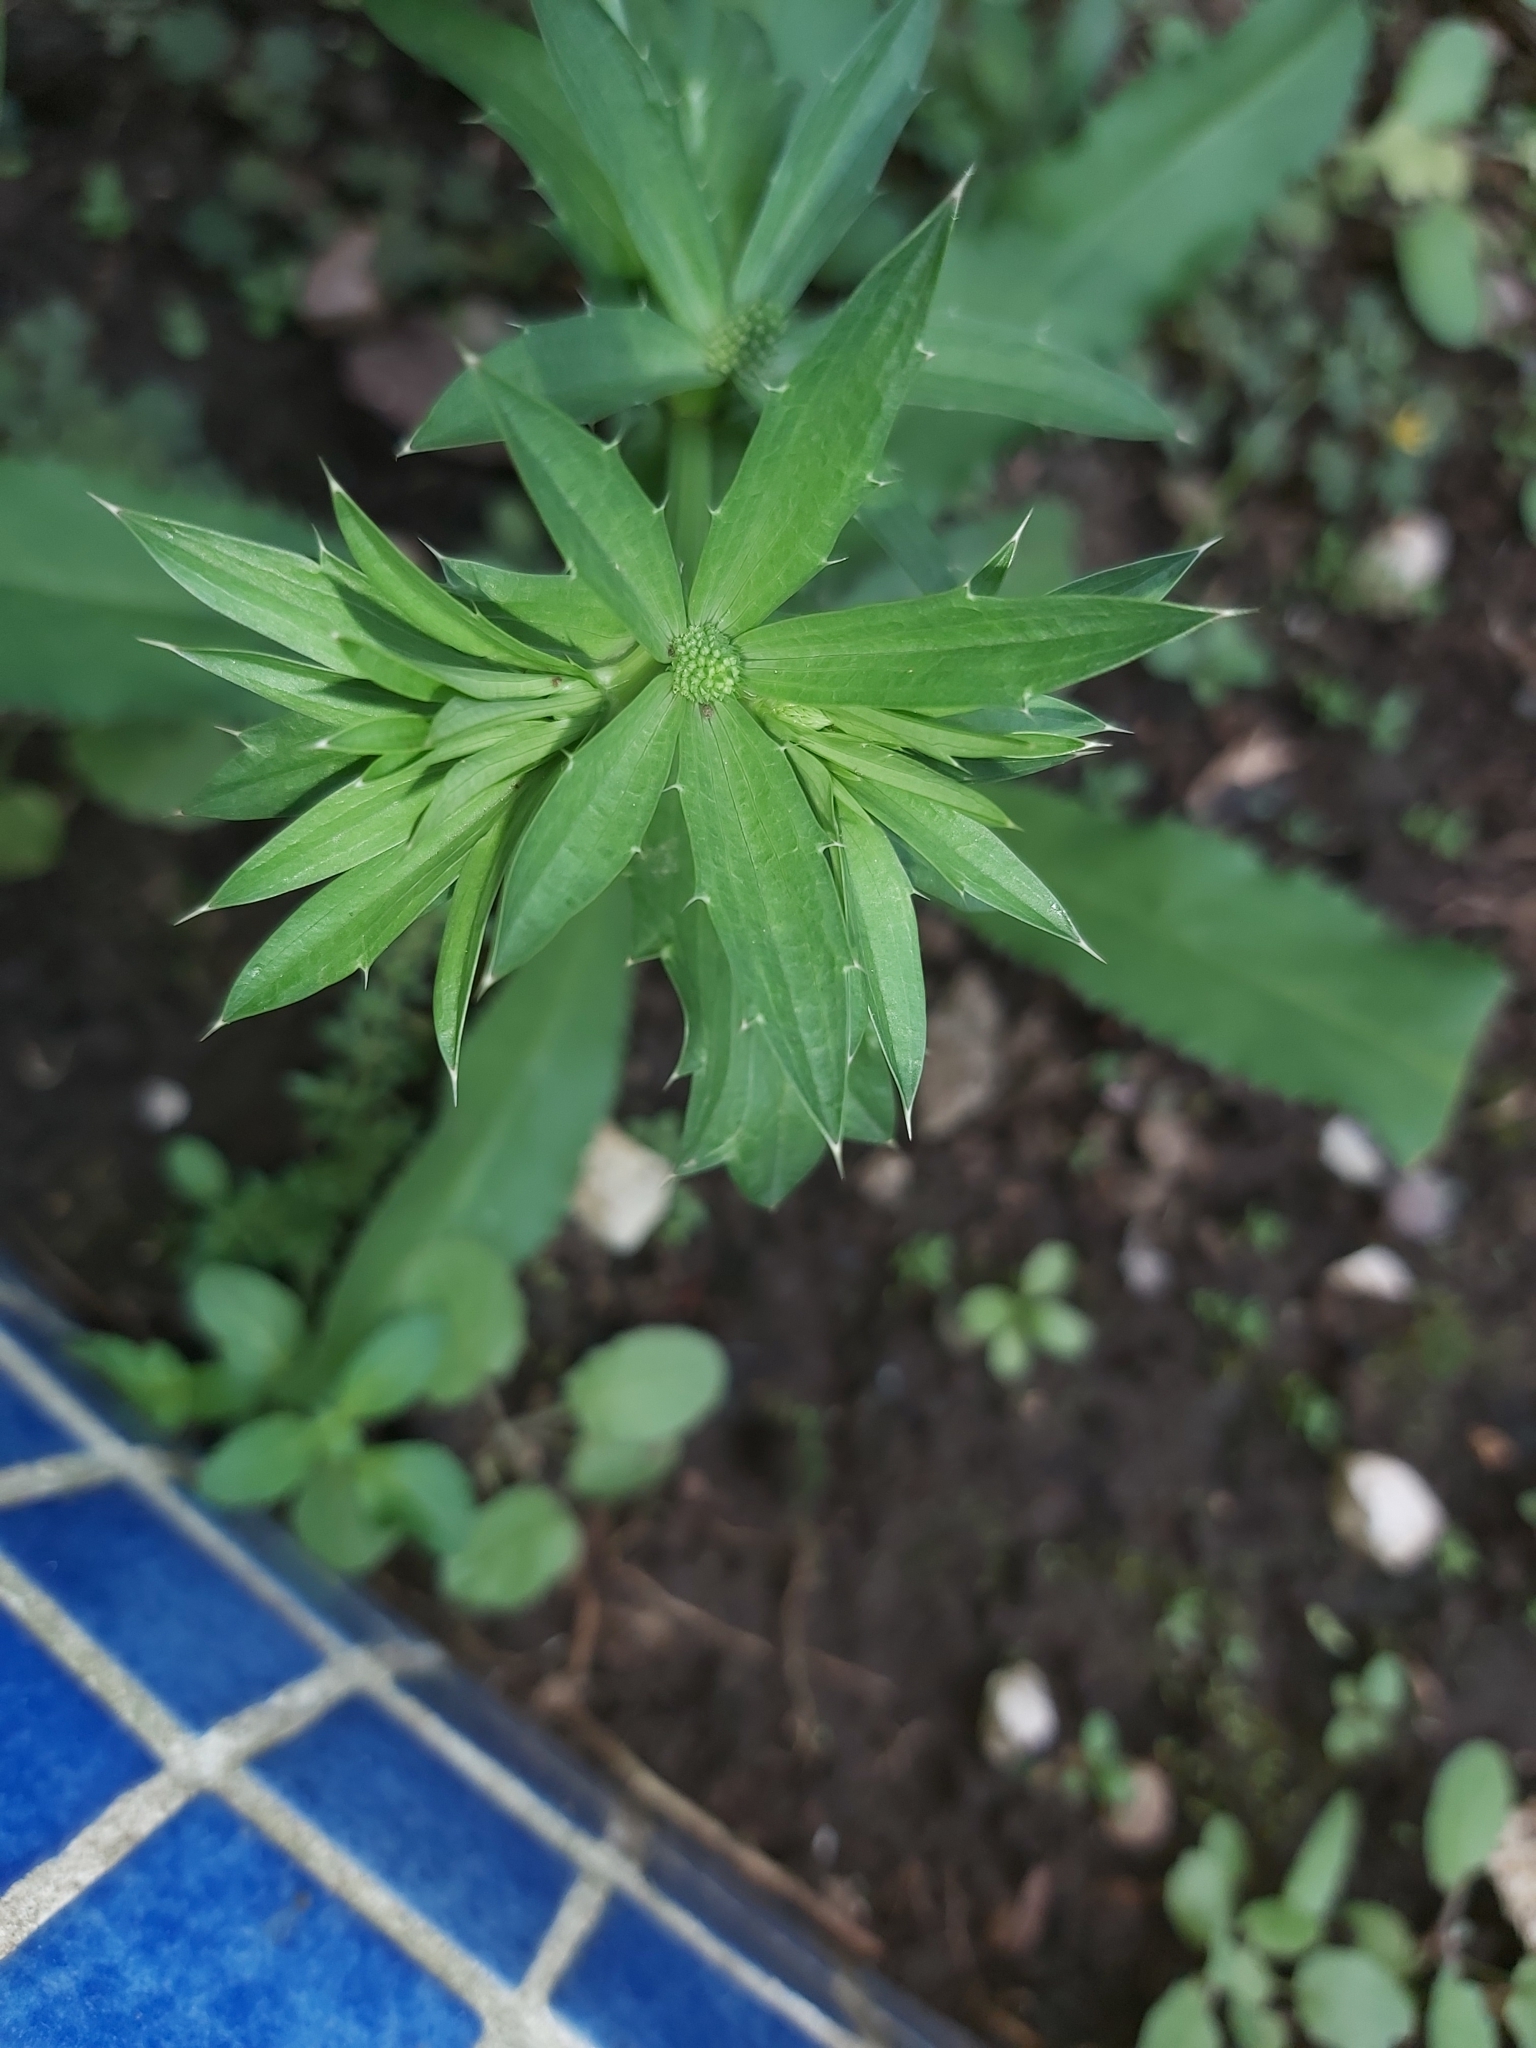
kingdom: Plantae
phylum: Tracheophyta
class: Magnoliopsida
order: Apiales
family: Apiaceae
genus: Eryngium
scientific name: Eryngium foetidum
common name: Fitweed
